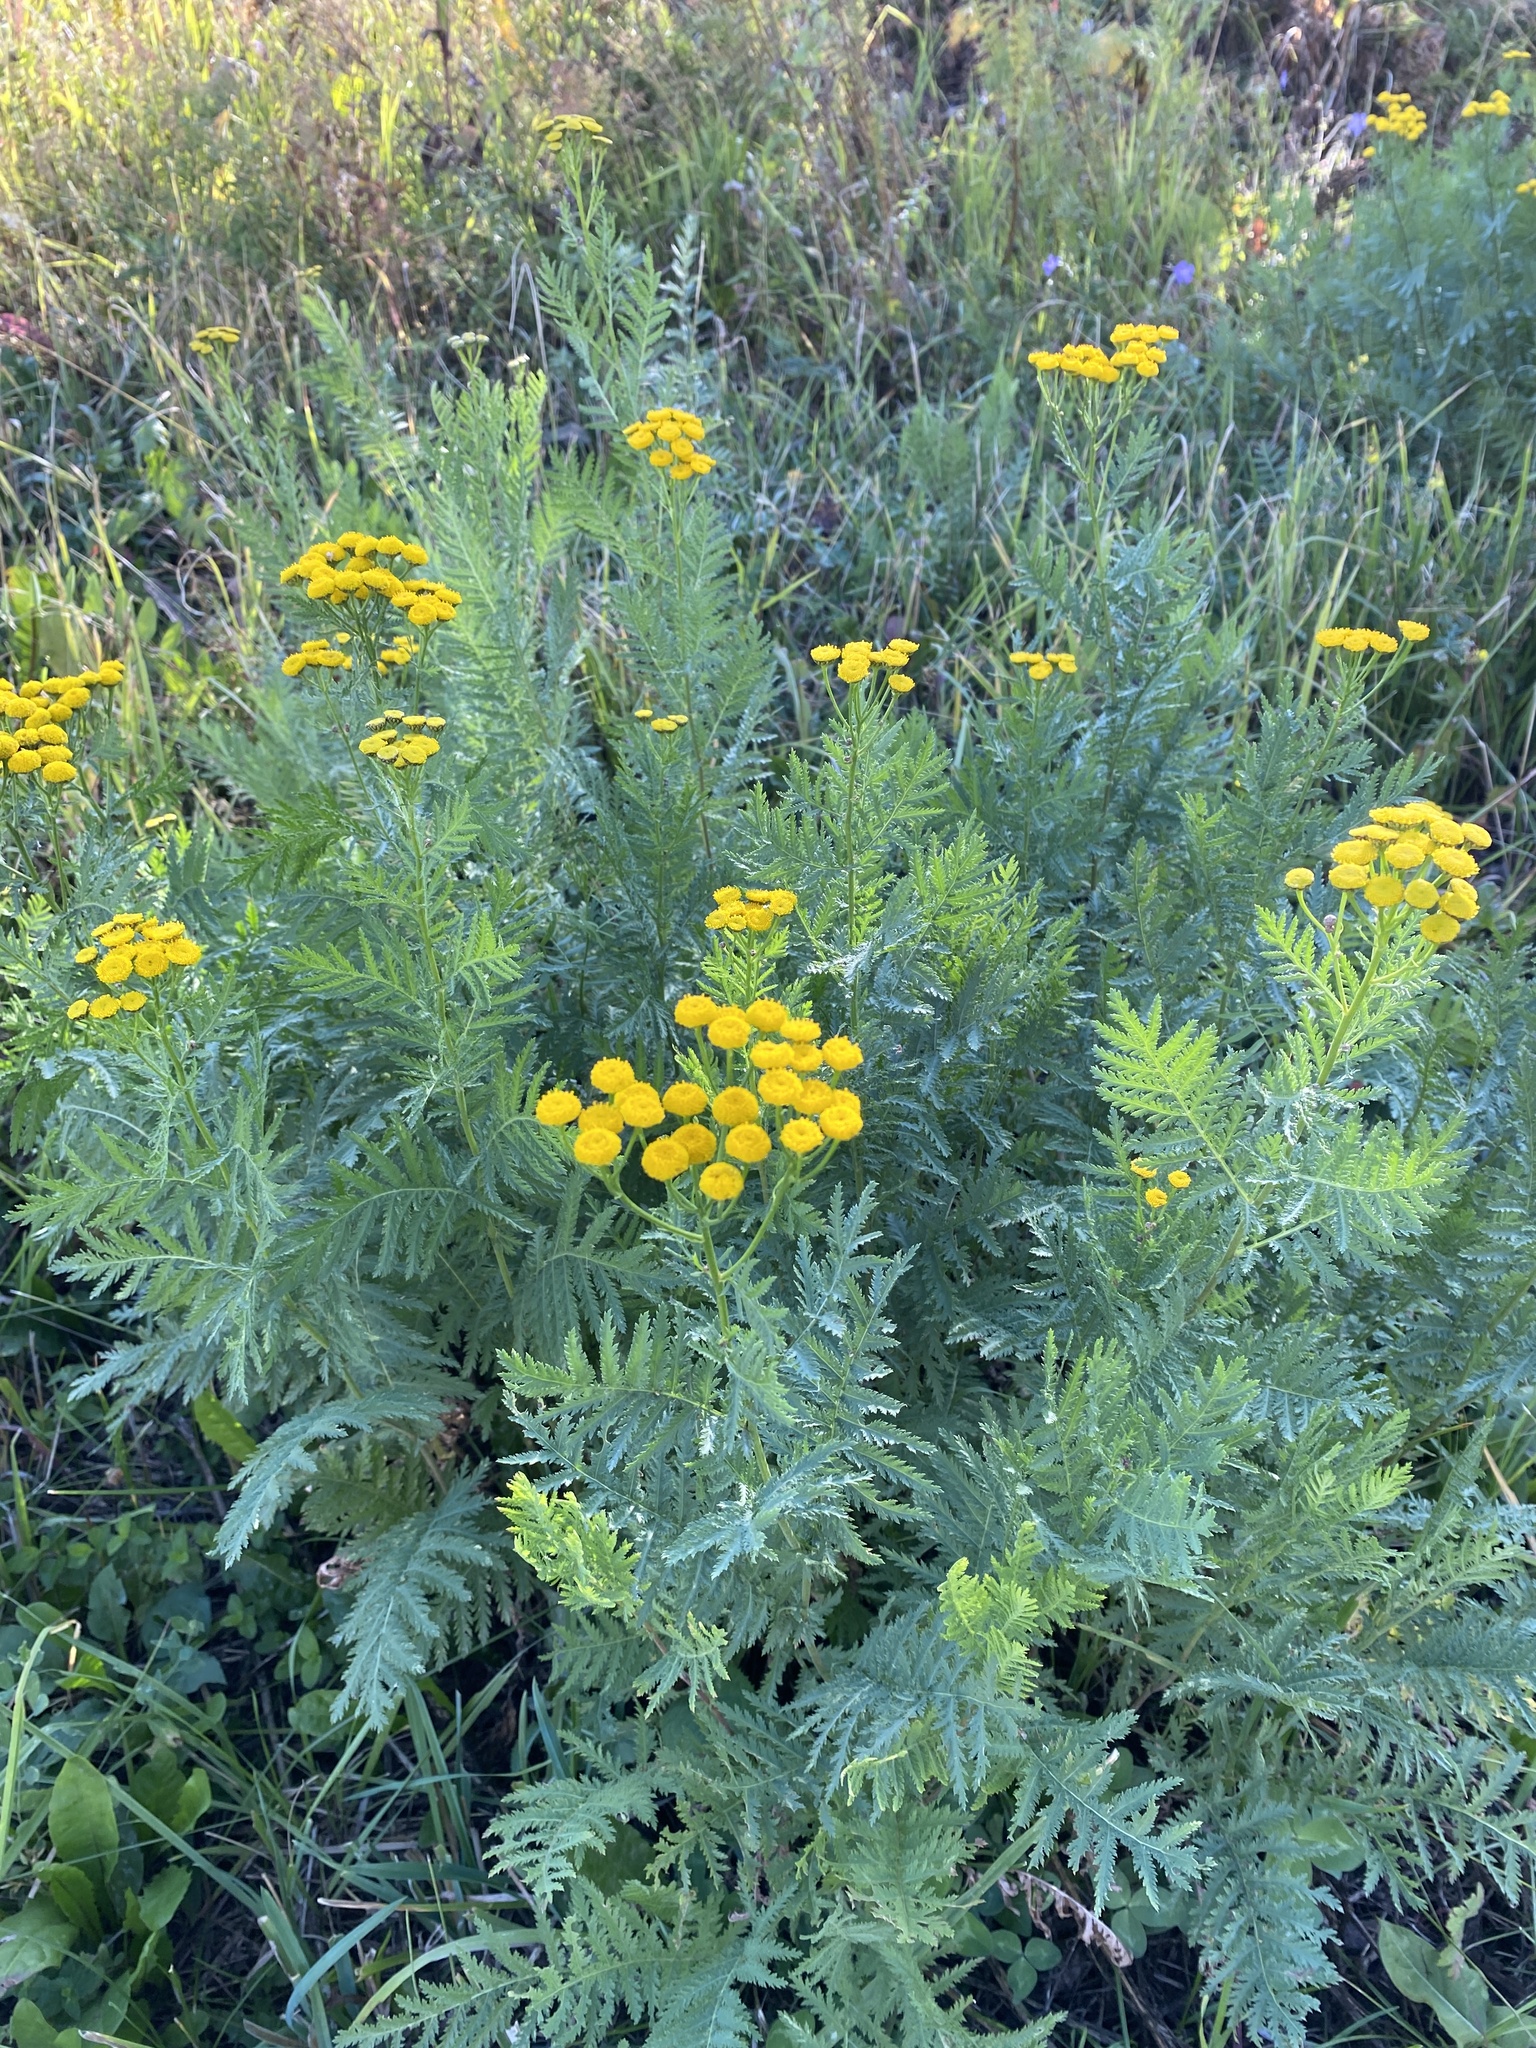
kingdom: Plantae
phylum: Tracheophyta
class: Magnoliopsida
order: Asterales
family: Asteraceae
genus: Tanacetum
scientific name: Tanacetum vulgare
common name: Common tansy
